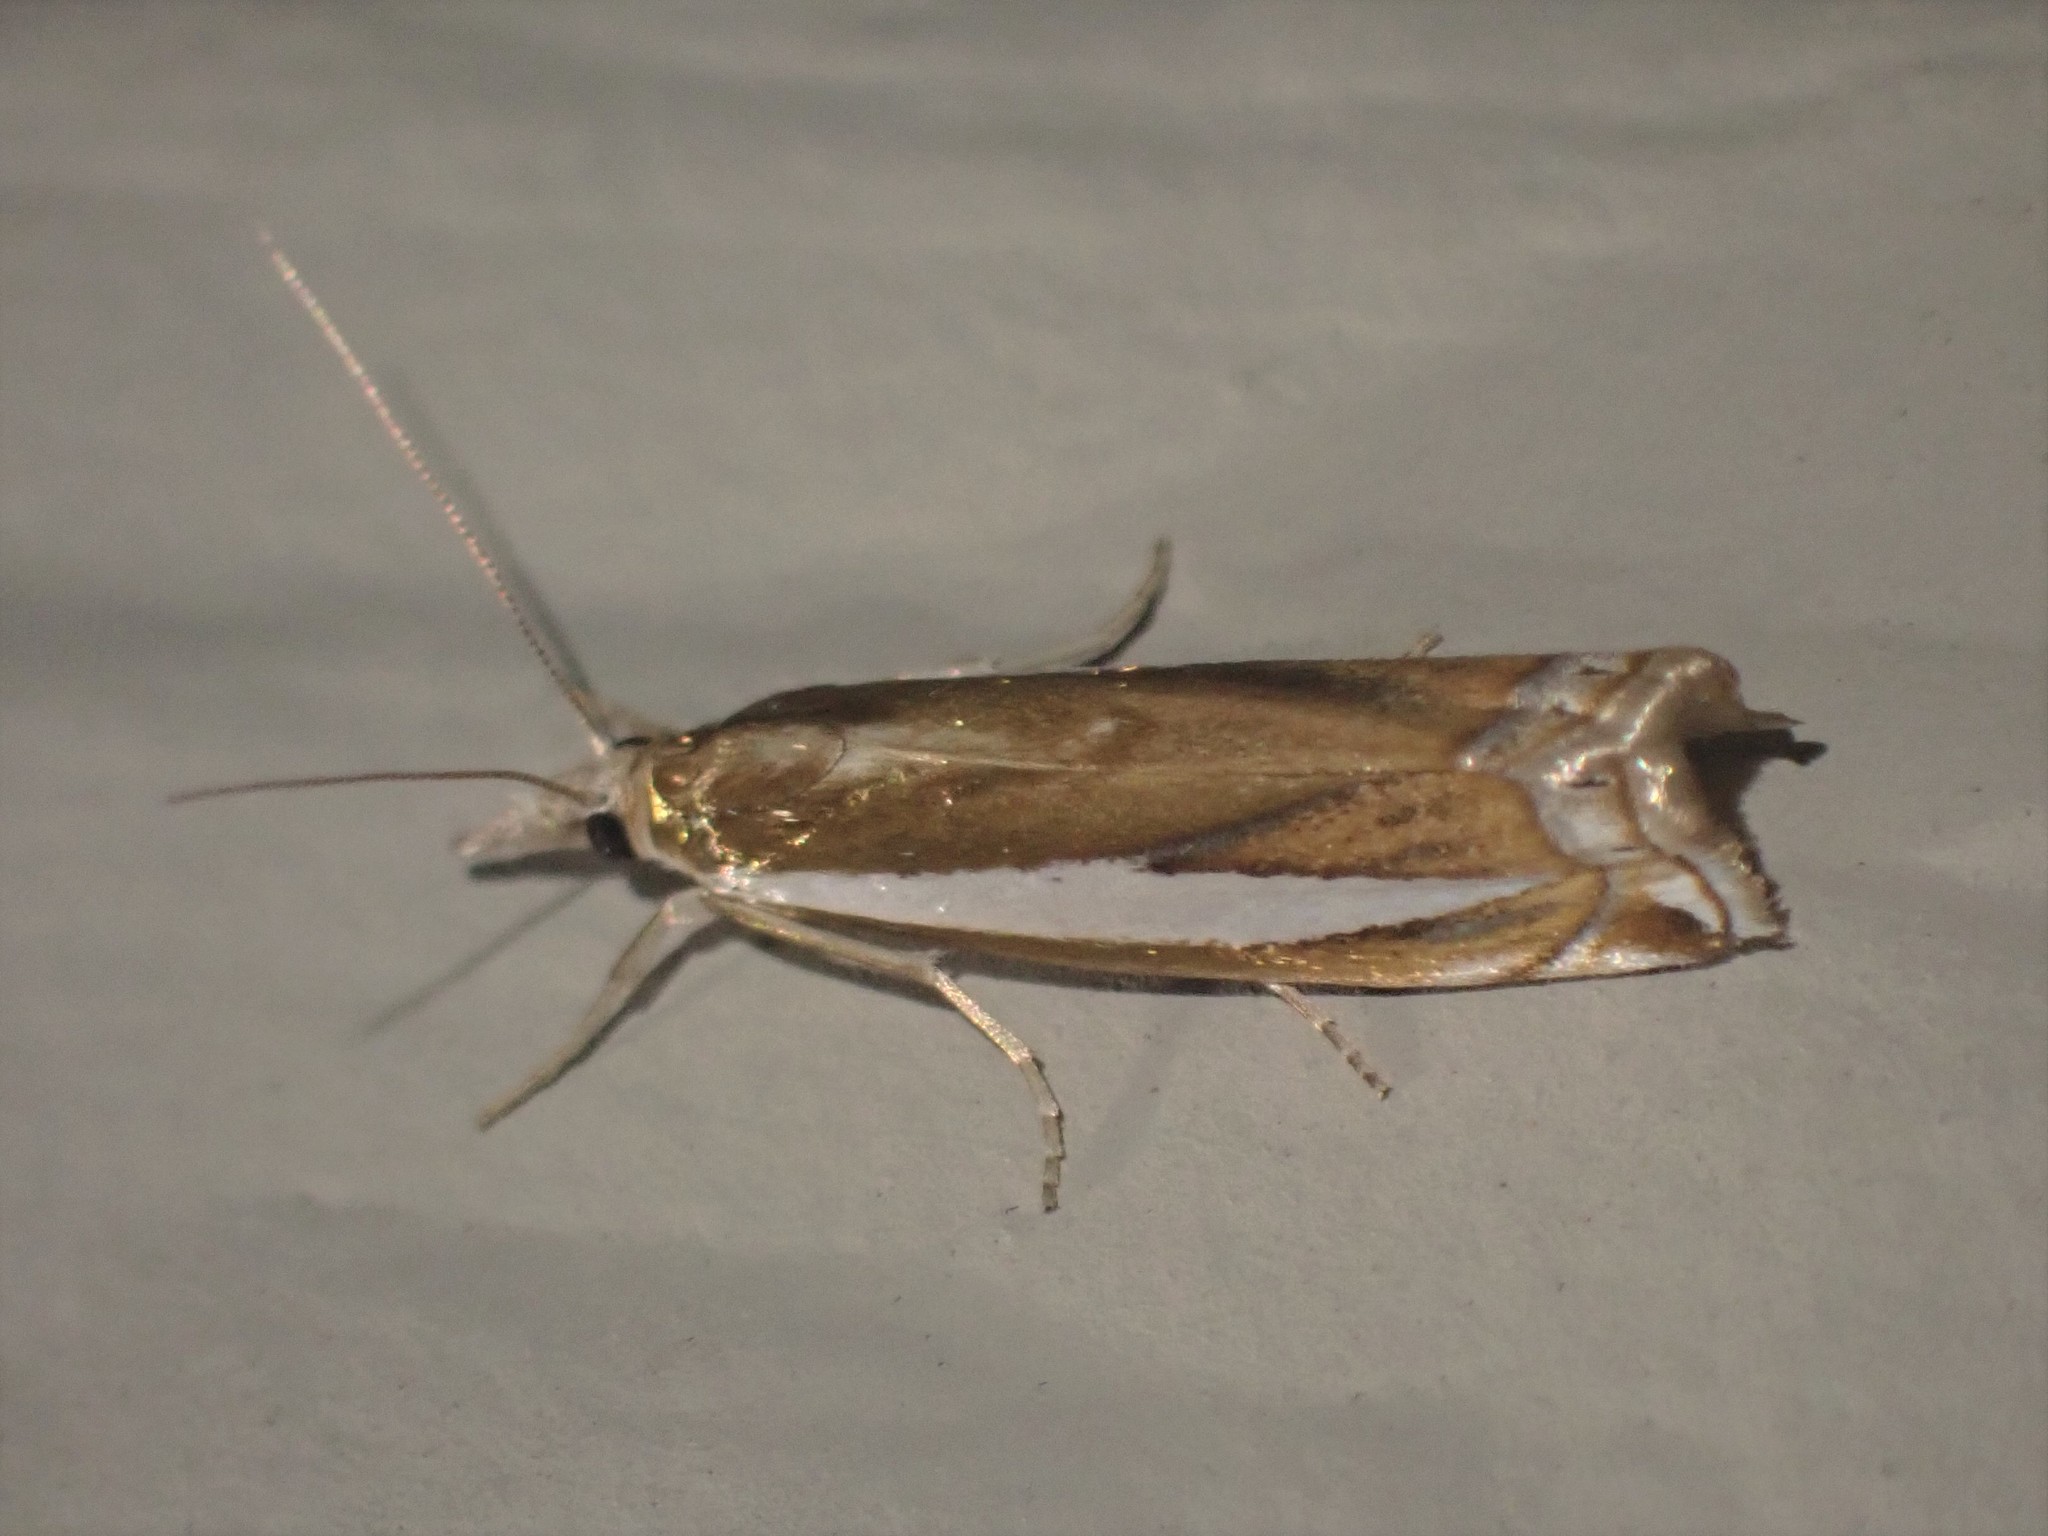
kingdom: Animalia
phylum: Arthropoda
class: Insecta
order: Lepidoptera
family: Crambidae
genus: Crambus
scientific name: Crambus praefectellus
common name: Common grass-veneer
